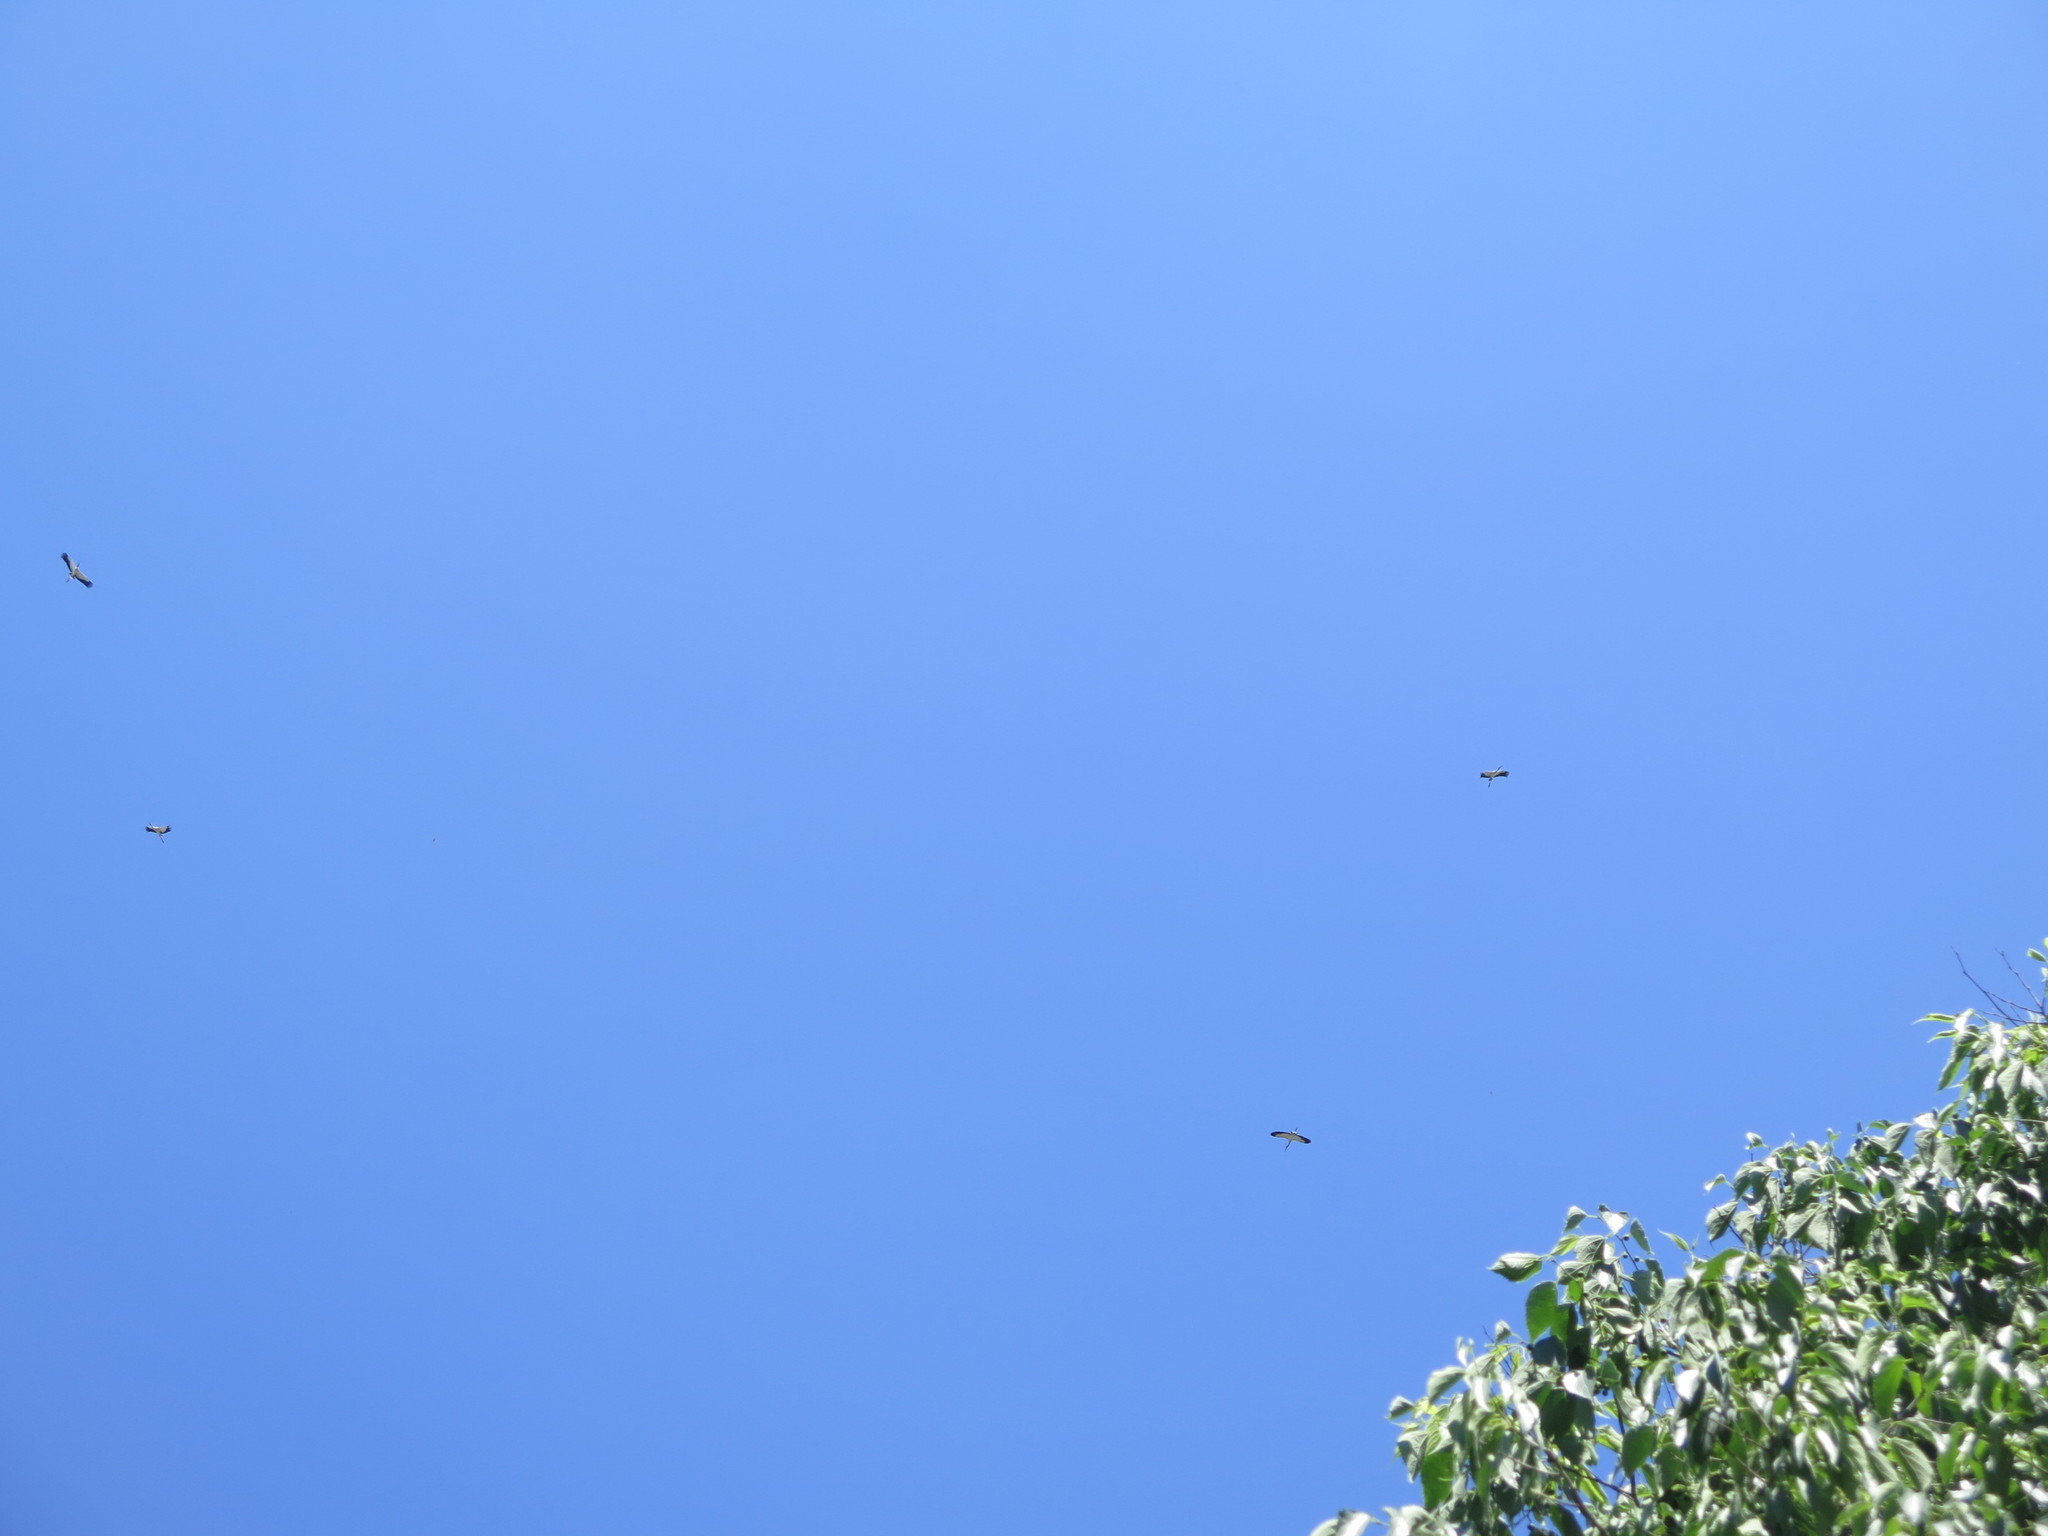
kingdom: Animalia
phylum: Chordata
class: Aves
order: Ciconiiformes
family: Ciconiidae
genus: Ciconia
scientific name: Ciconia maguari
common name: Maguari stork
